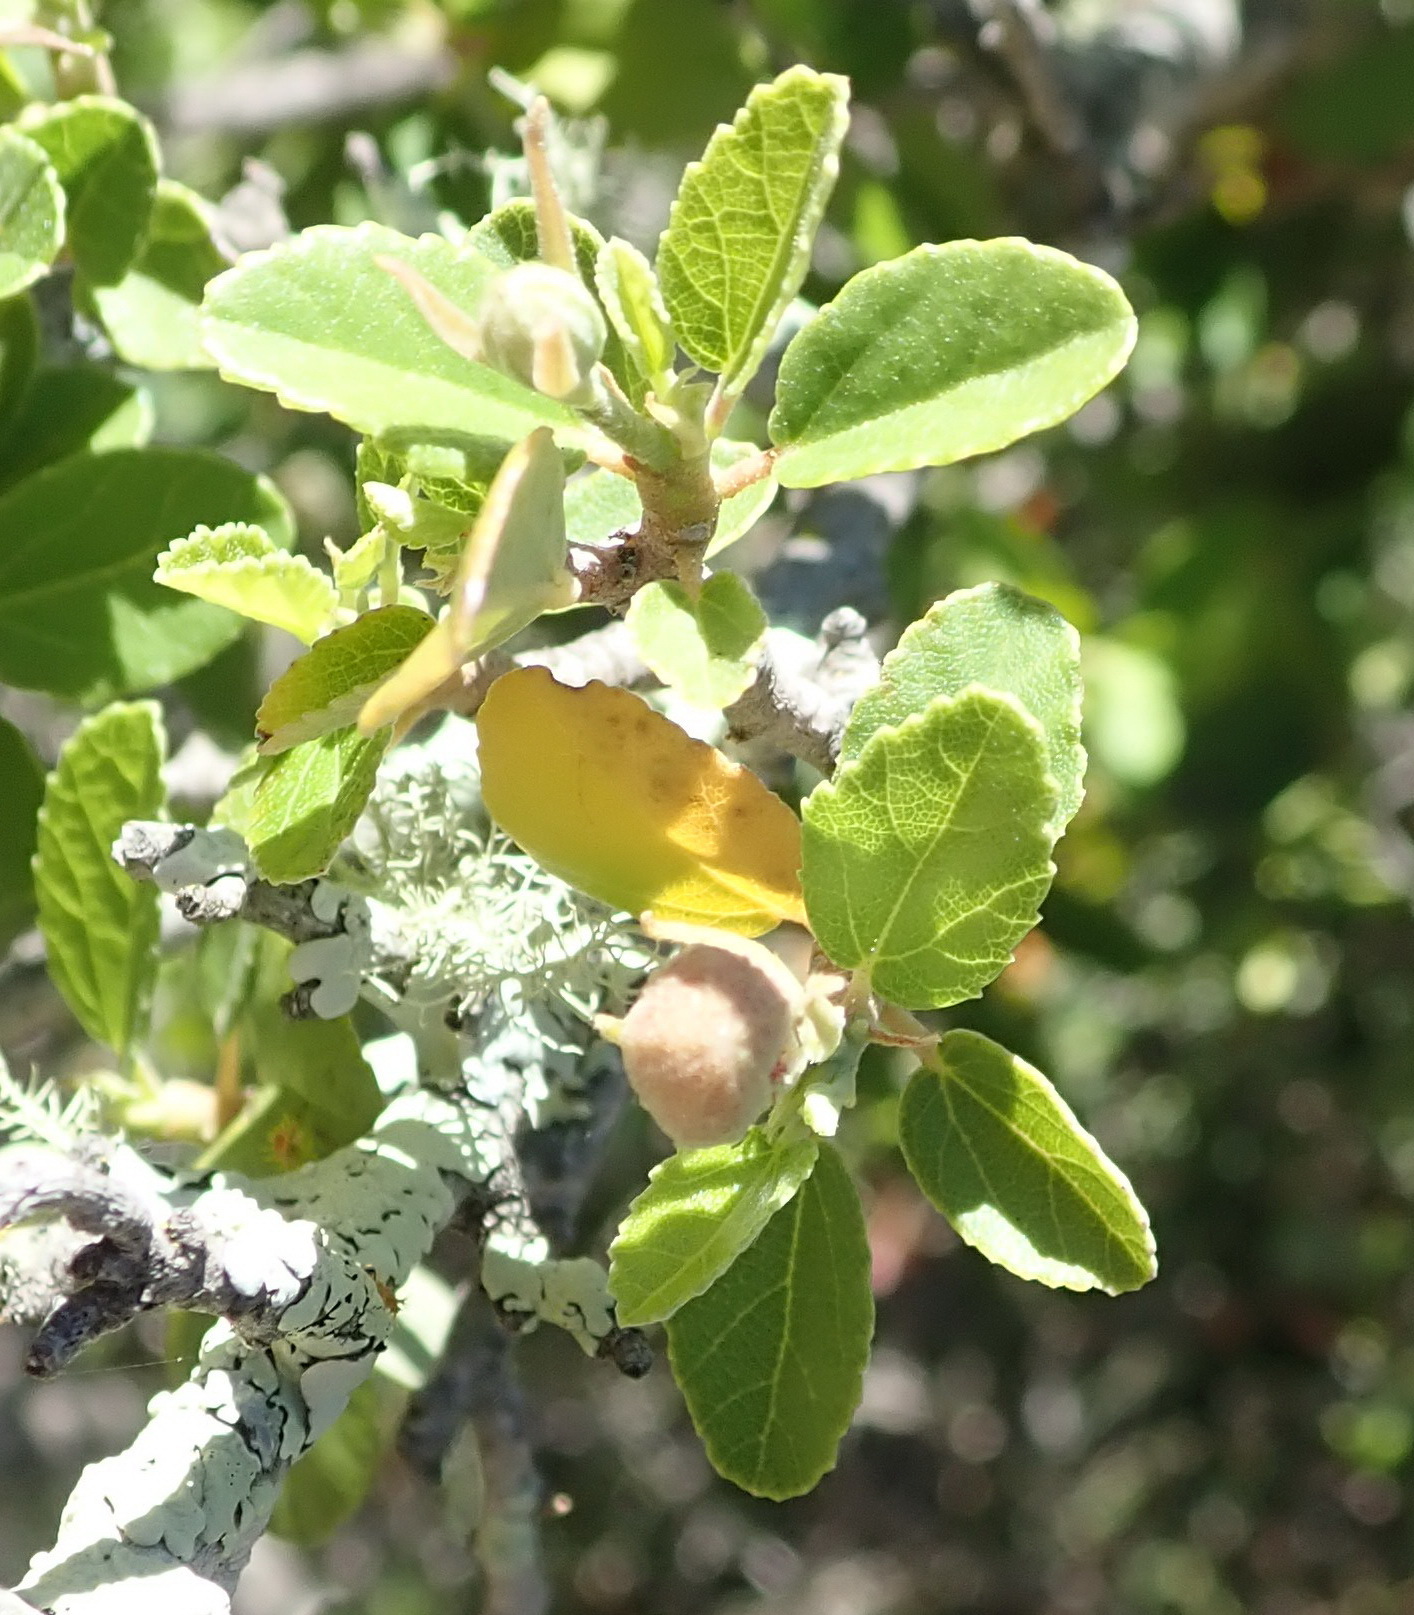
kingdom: Plantae
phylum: Tracheophyta
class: Magnoliopsida
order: Malvales
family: Malvaceae
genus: Grewia
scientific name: Grewia robusta
